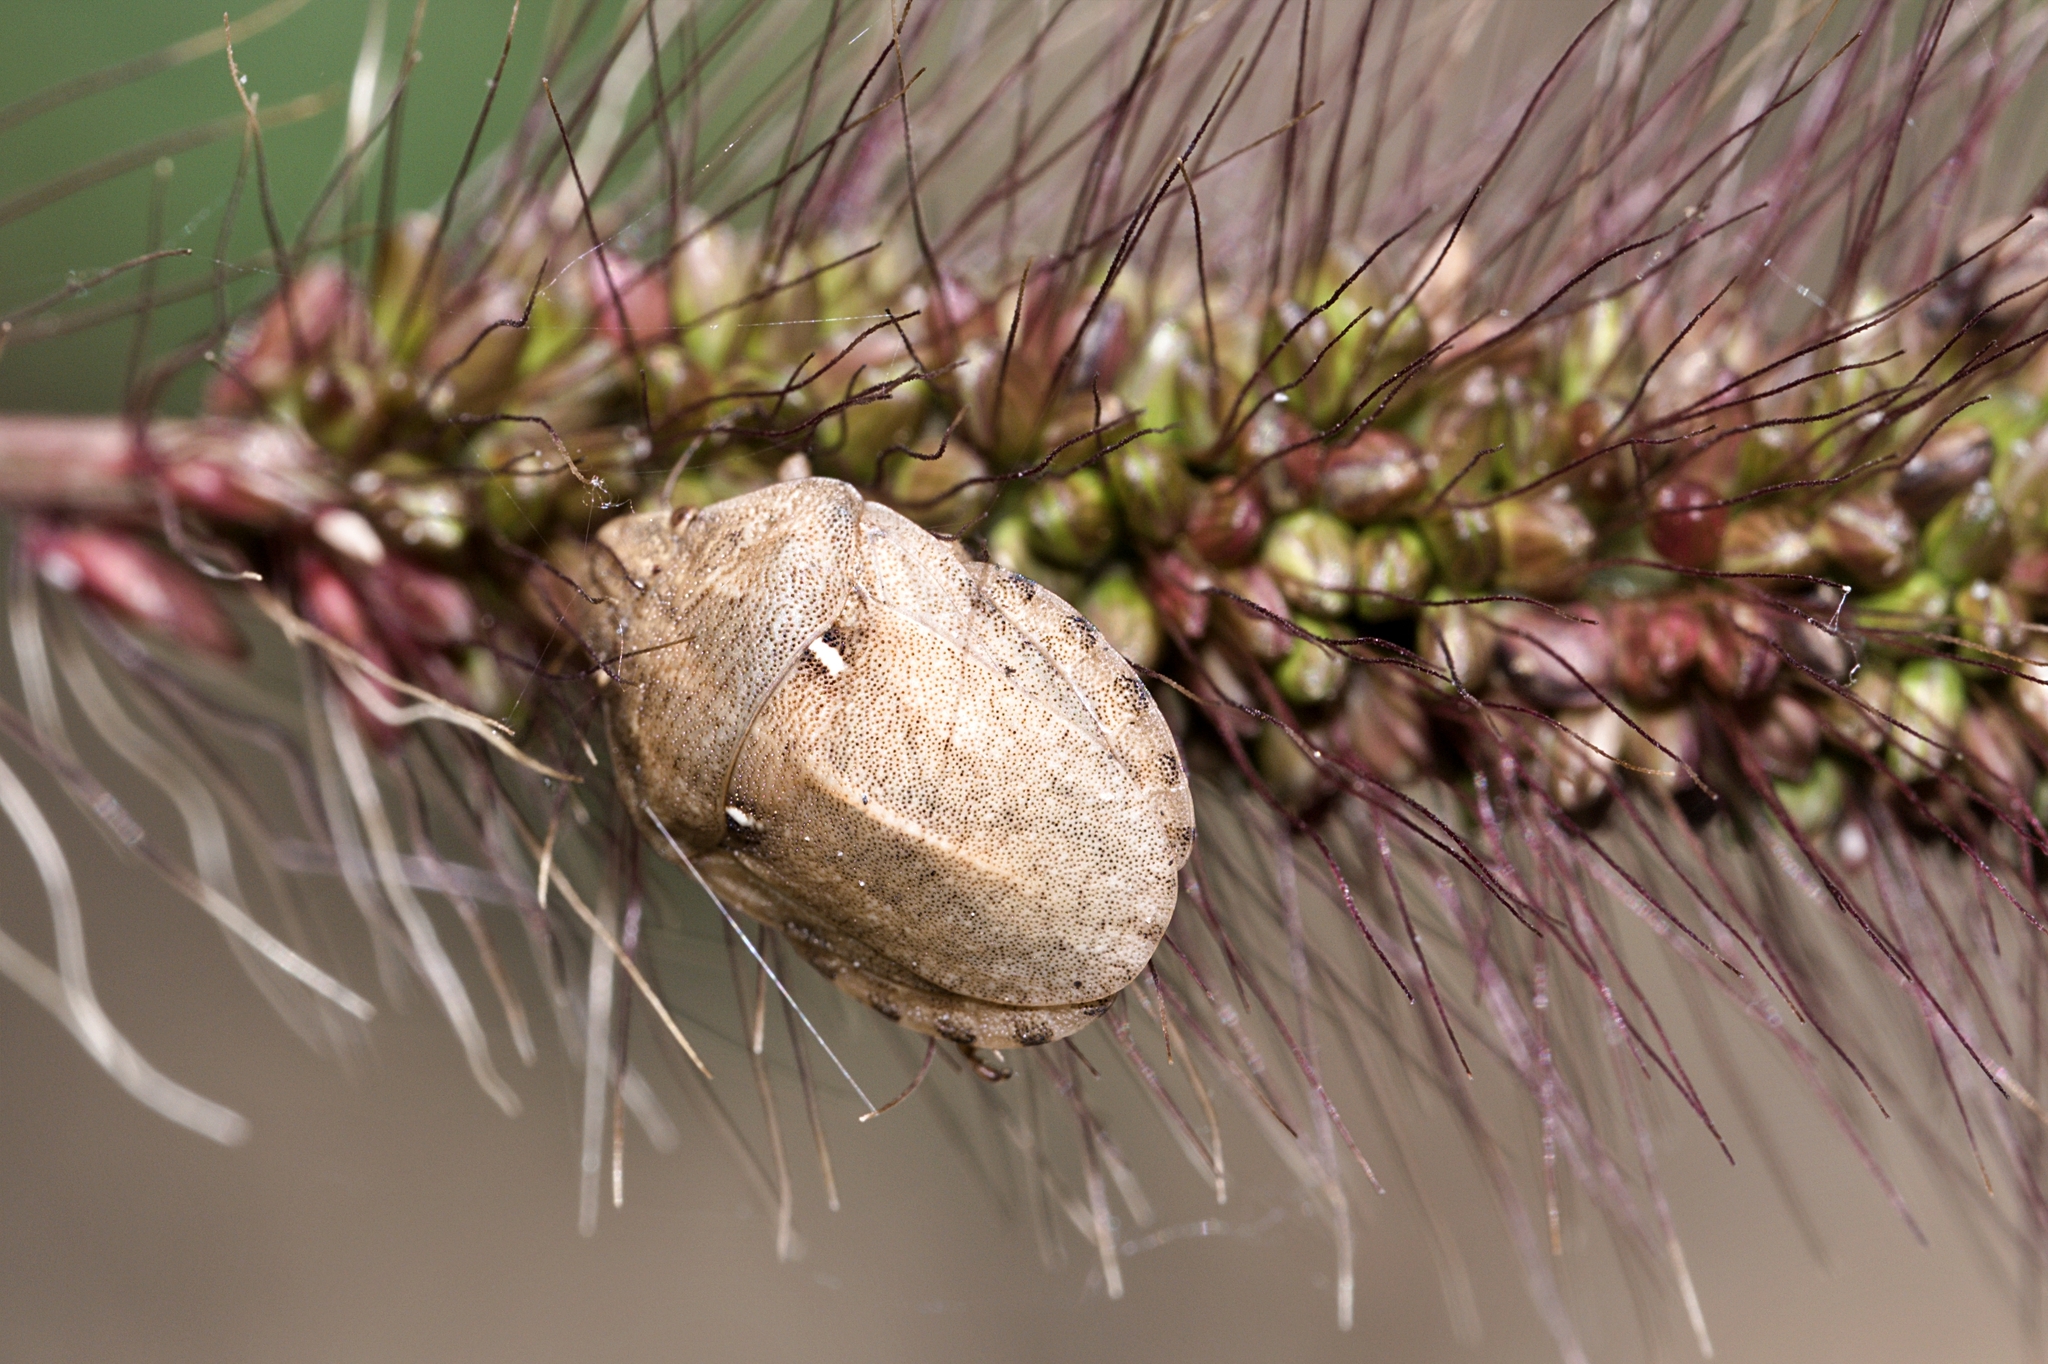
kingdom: Animalia
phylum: Arthropoda
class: Insecta
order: Hemiptera
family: Scutelleridae
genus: Eurygaster
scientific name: Eurygaster maura
